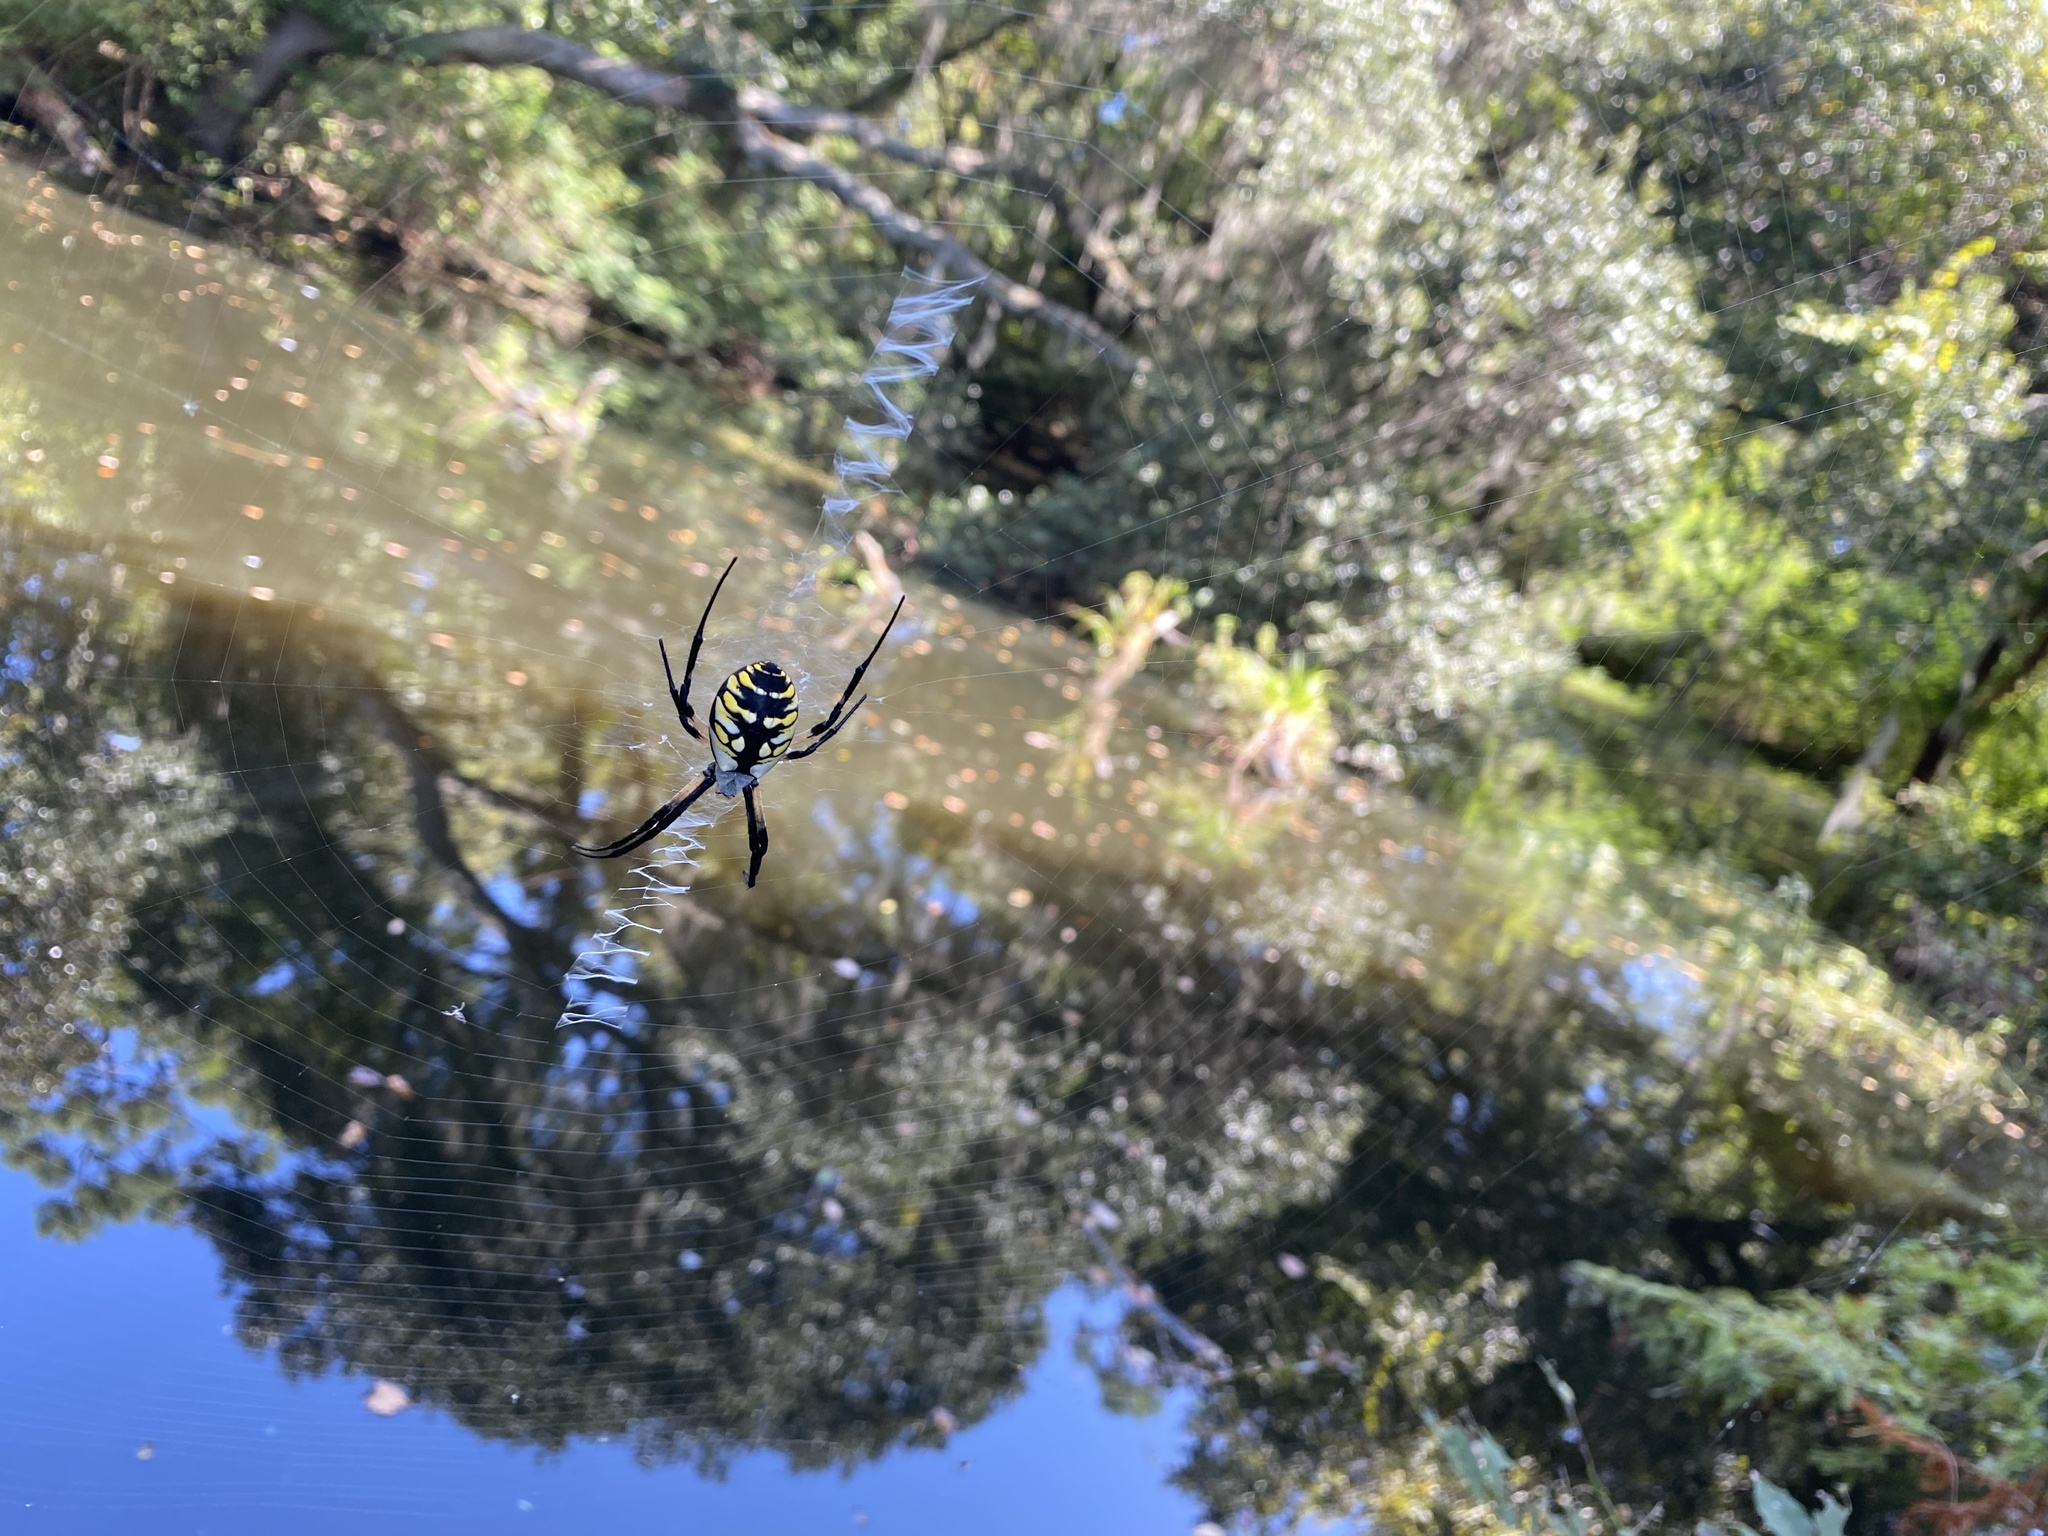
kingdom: Animalia
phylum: Arthropoda
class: Arachnida
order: Araneae
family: Araneidae
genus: Argiope
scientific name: Argiope aurantia
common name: Orb weavers
